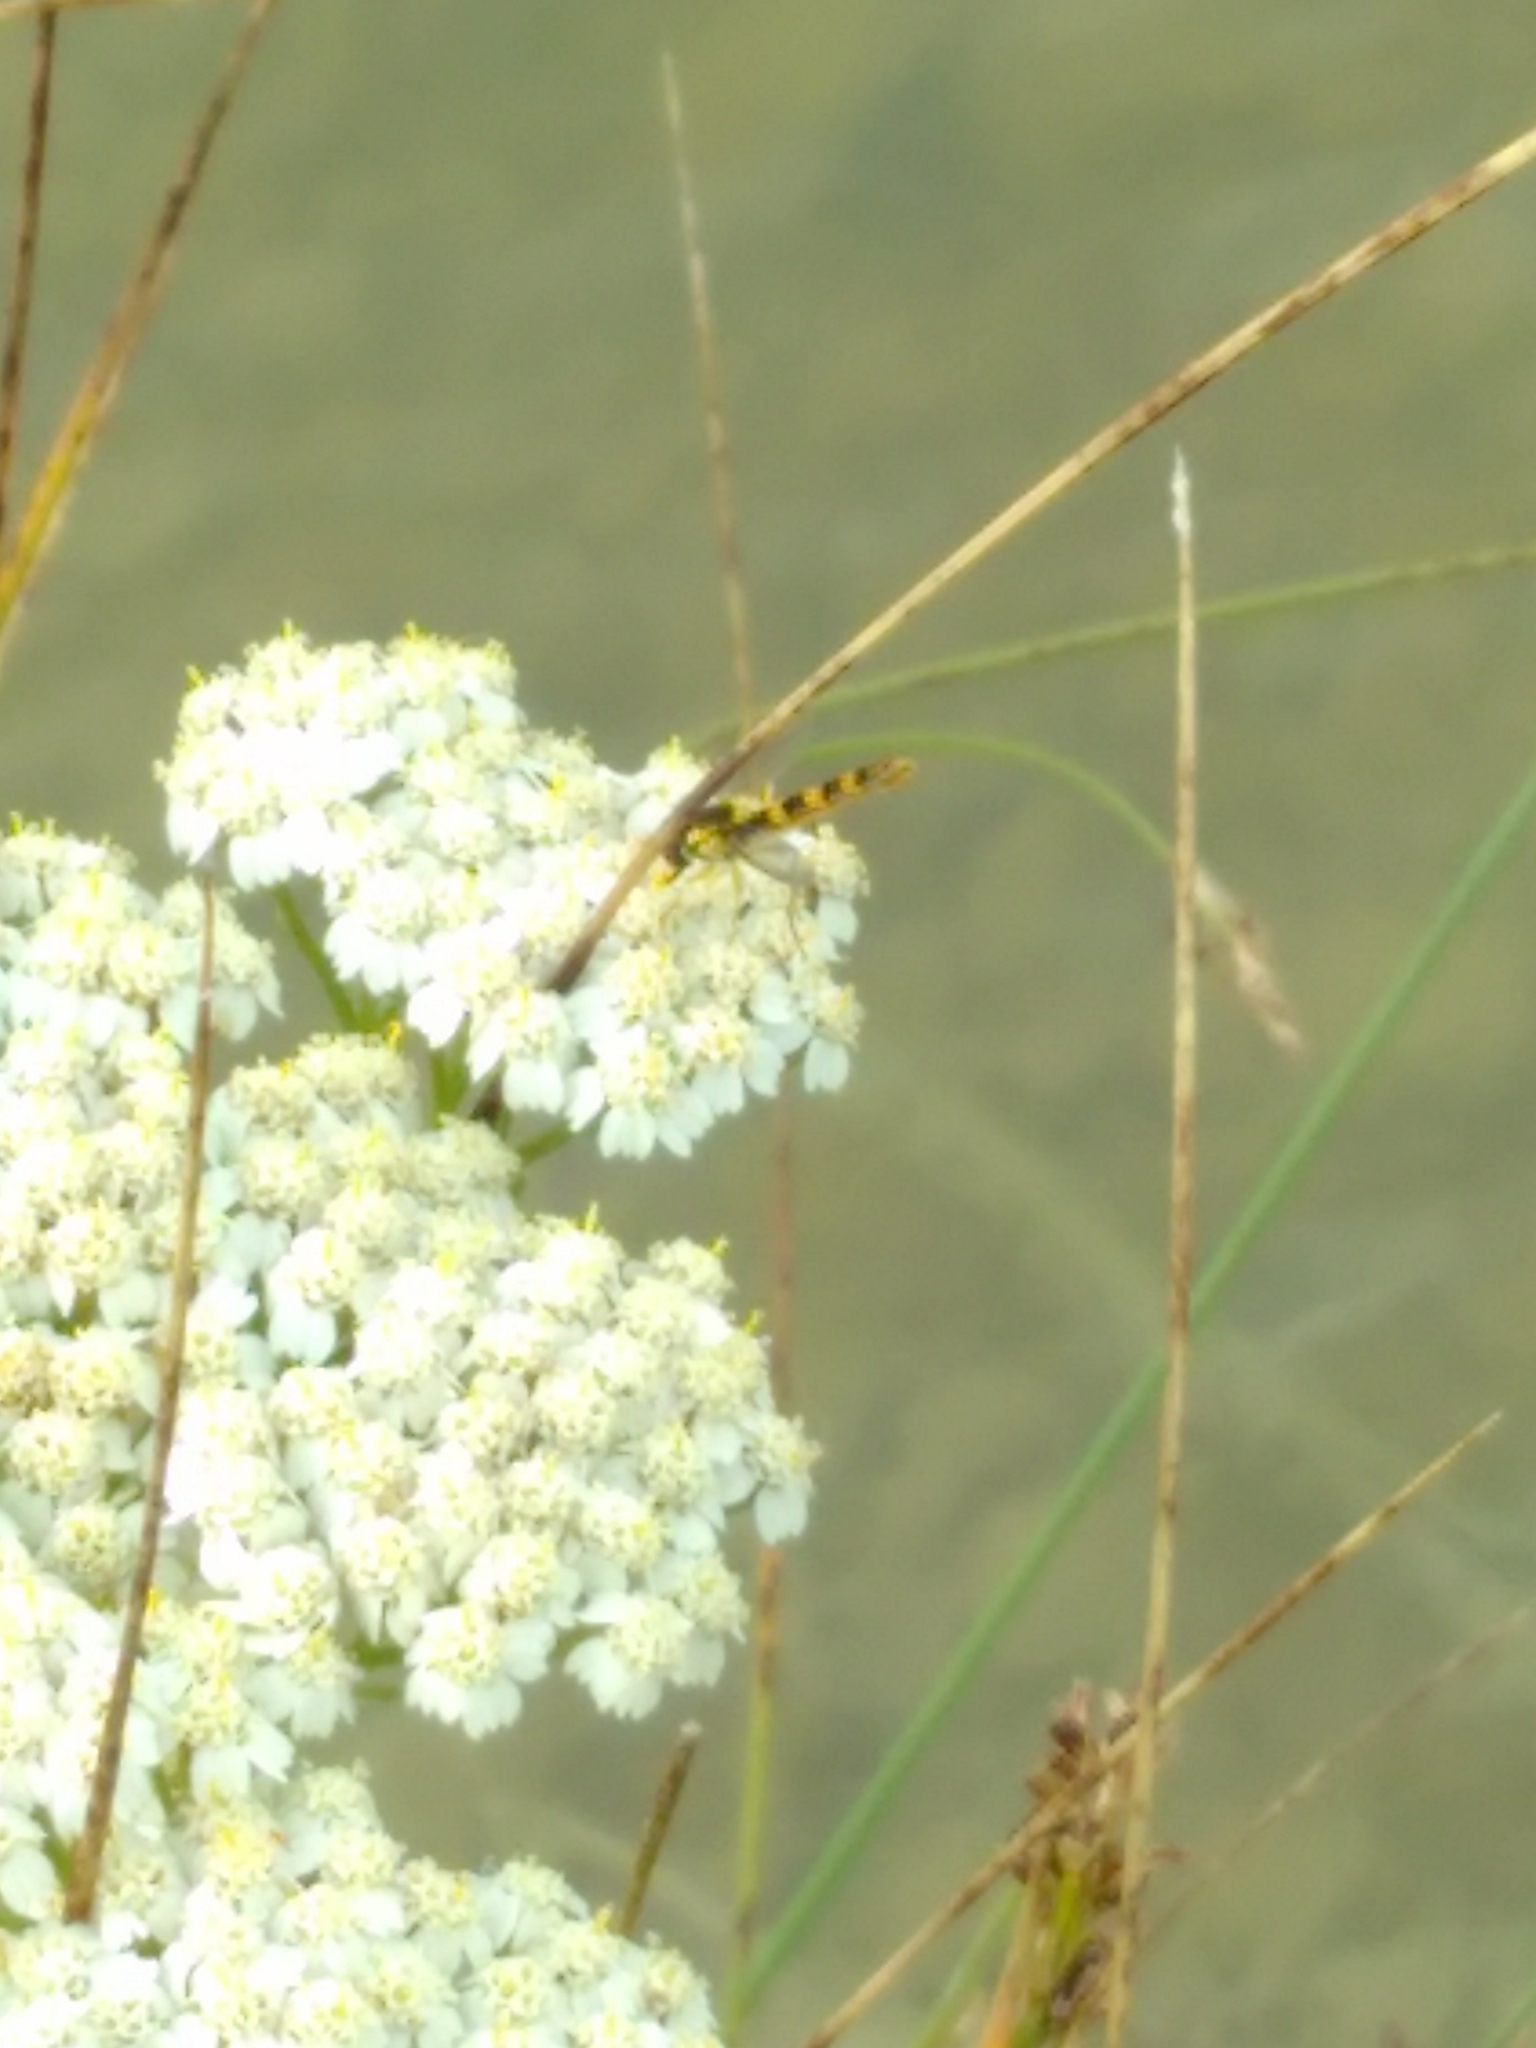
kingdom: Animalia
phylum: Arthropoda
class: Insecta
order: Diptera
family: Syrphidae
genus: Sphaerophoria
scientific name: Sphaerophoria scripta
